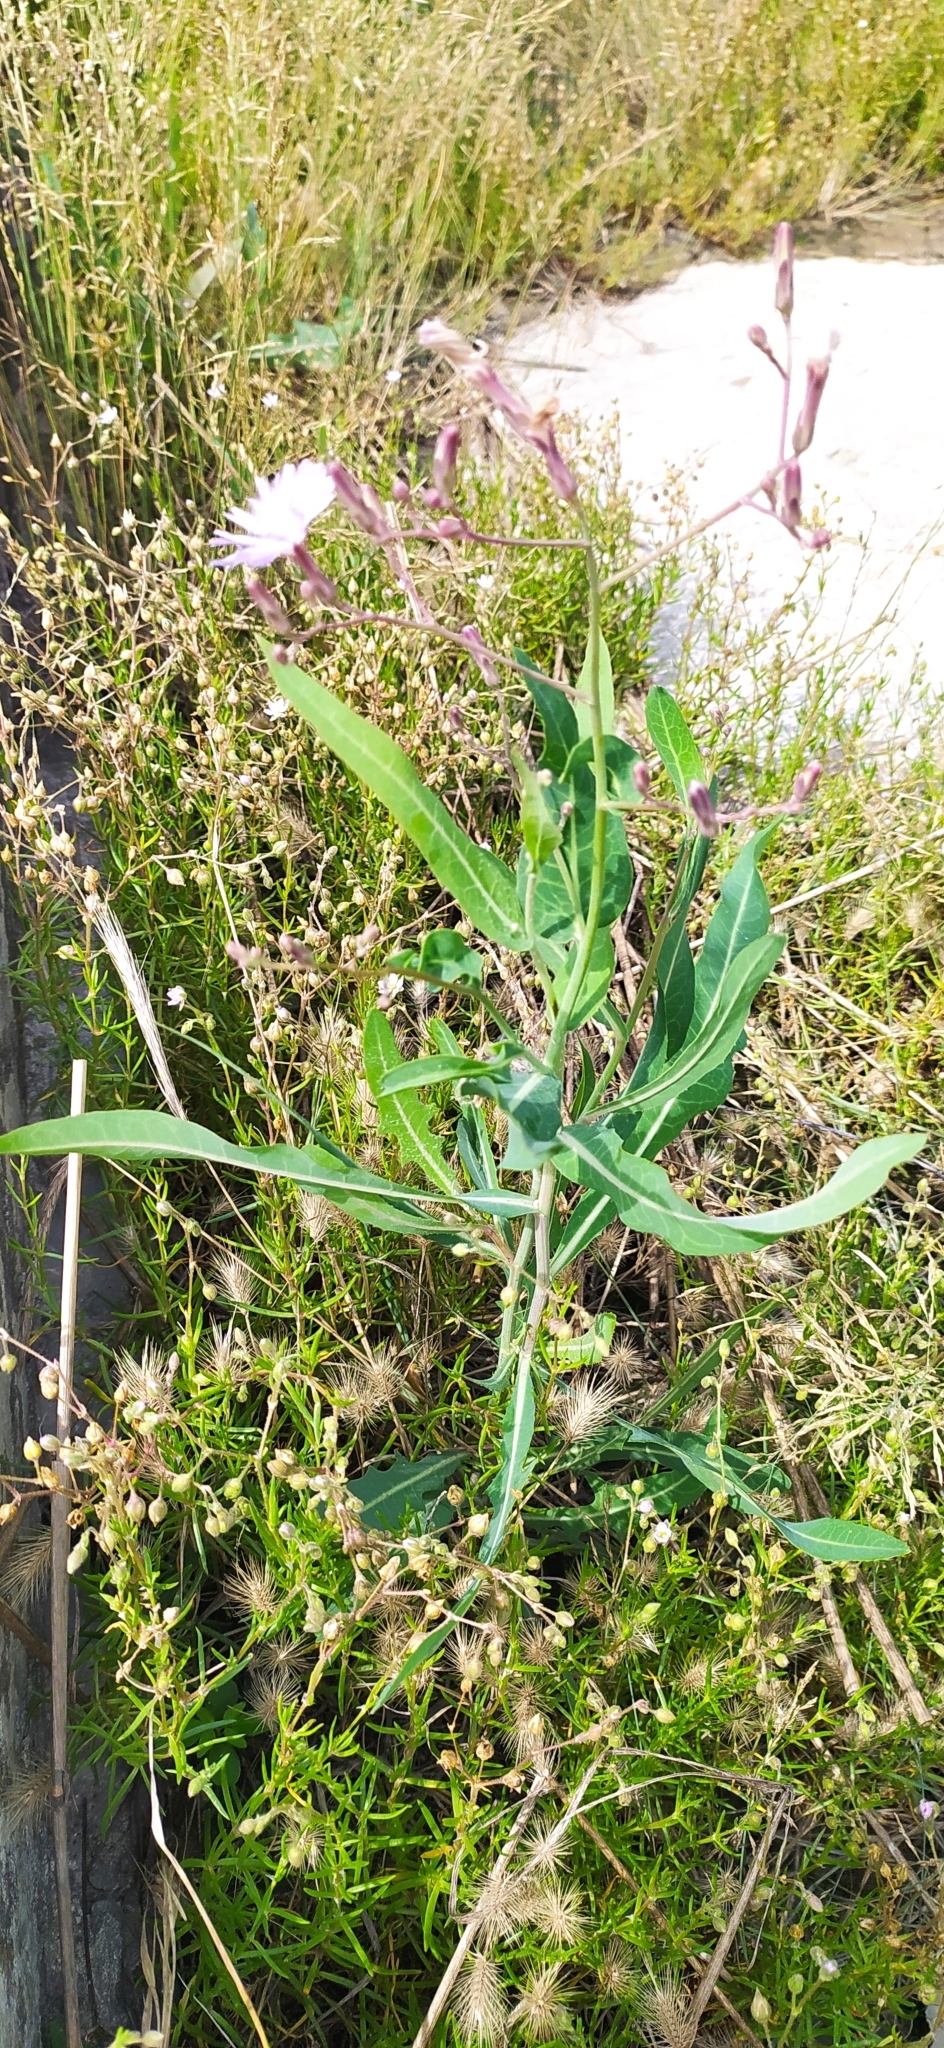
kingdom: Plantae
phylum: Tracheophyta
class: Magnoliopsida
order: Asterales
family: Asteraceae
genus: Lactuca
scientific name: Lactuca tatarica
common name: Blue lettuce
